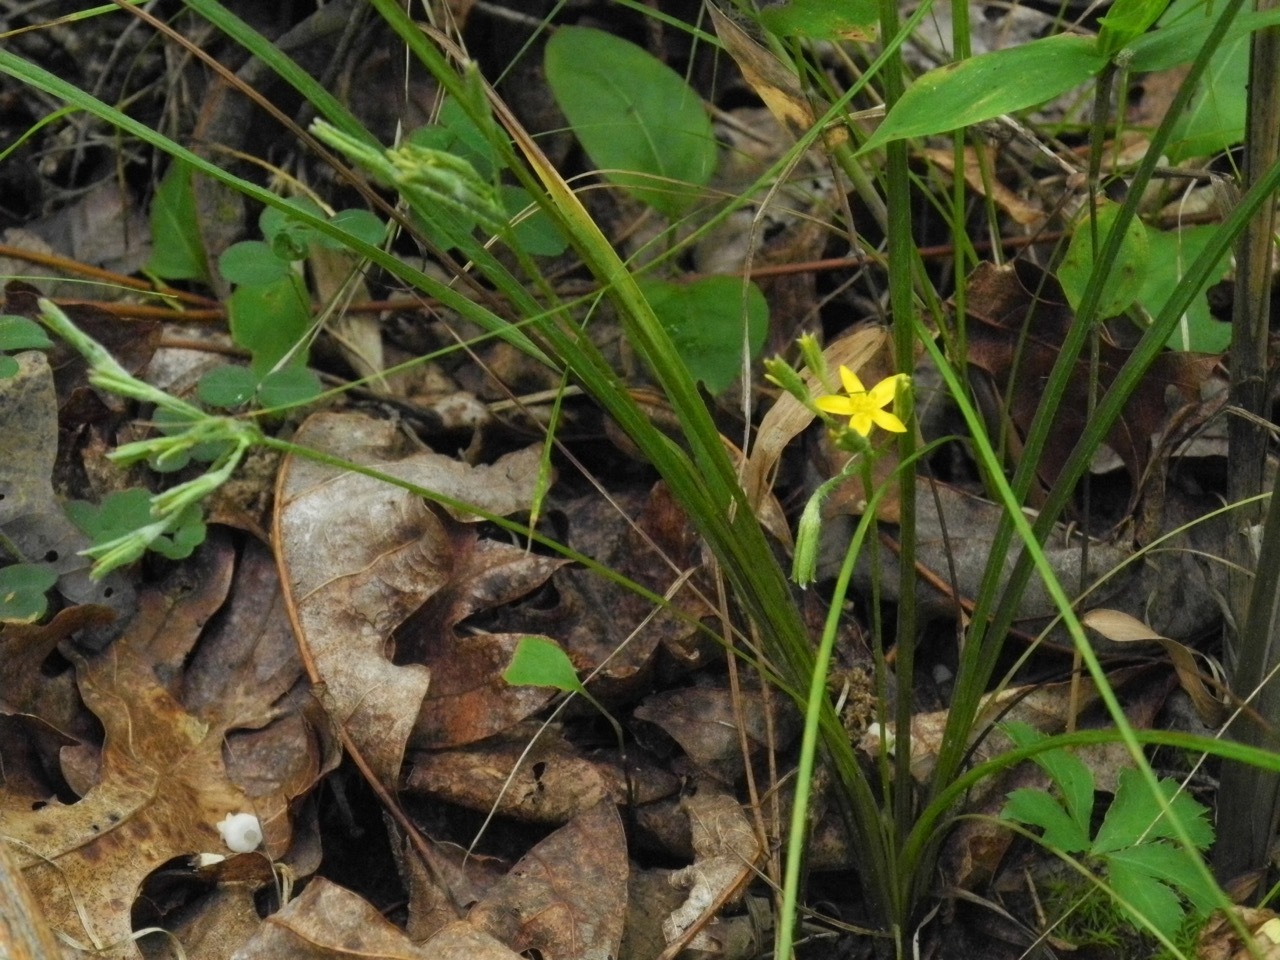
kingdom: Plantae
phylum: Tracheophyta
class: Liliopsida
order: Asparagales
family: Hypoxidaceae
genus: Hypoxis
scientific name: Hypoxis hirsuta
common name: Common goldstar
